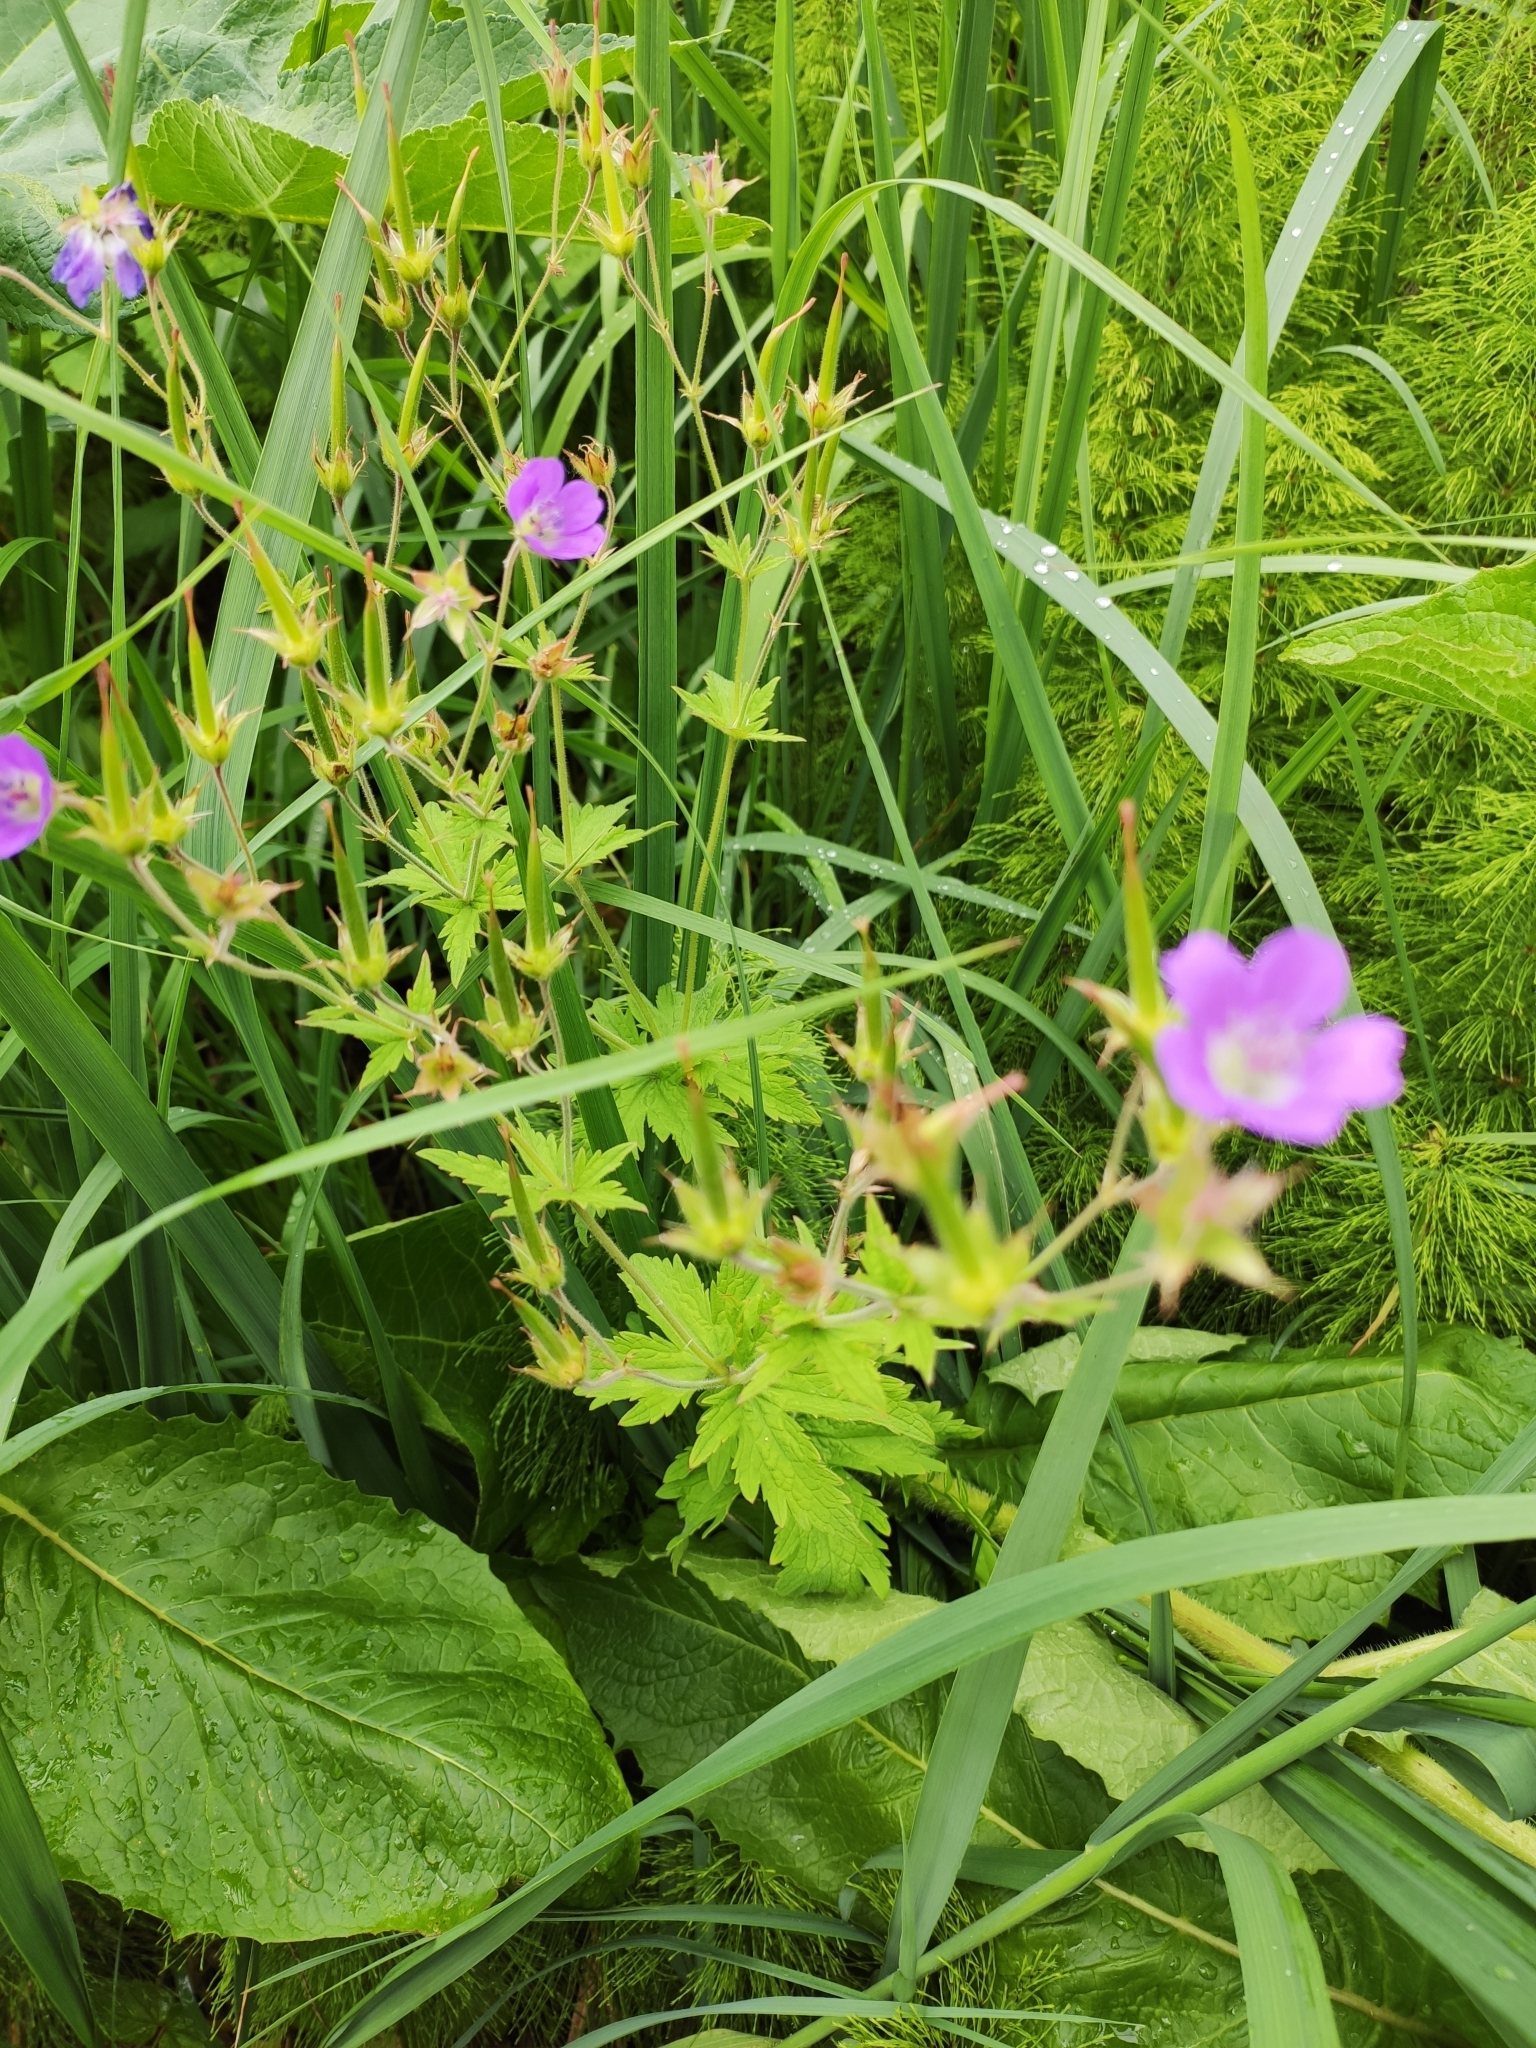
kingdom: Plantae
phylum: Tracheophyta
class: Magnoliopsida
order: Geraniales
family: Geraniaceae
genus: Geranium
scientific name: Geranium sylvaticum
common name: Wood crane's-bill
